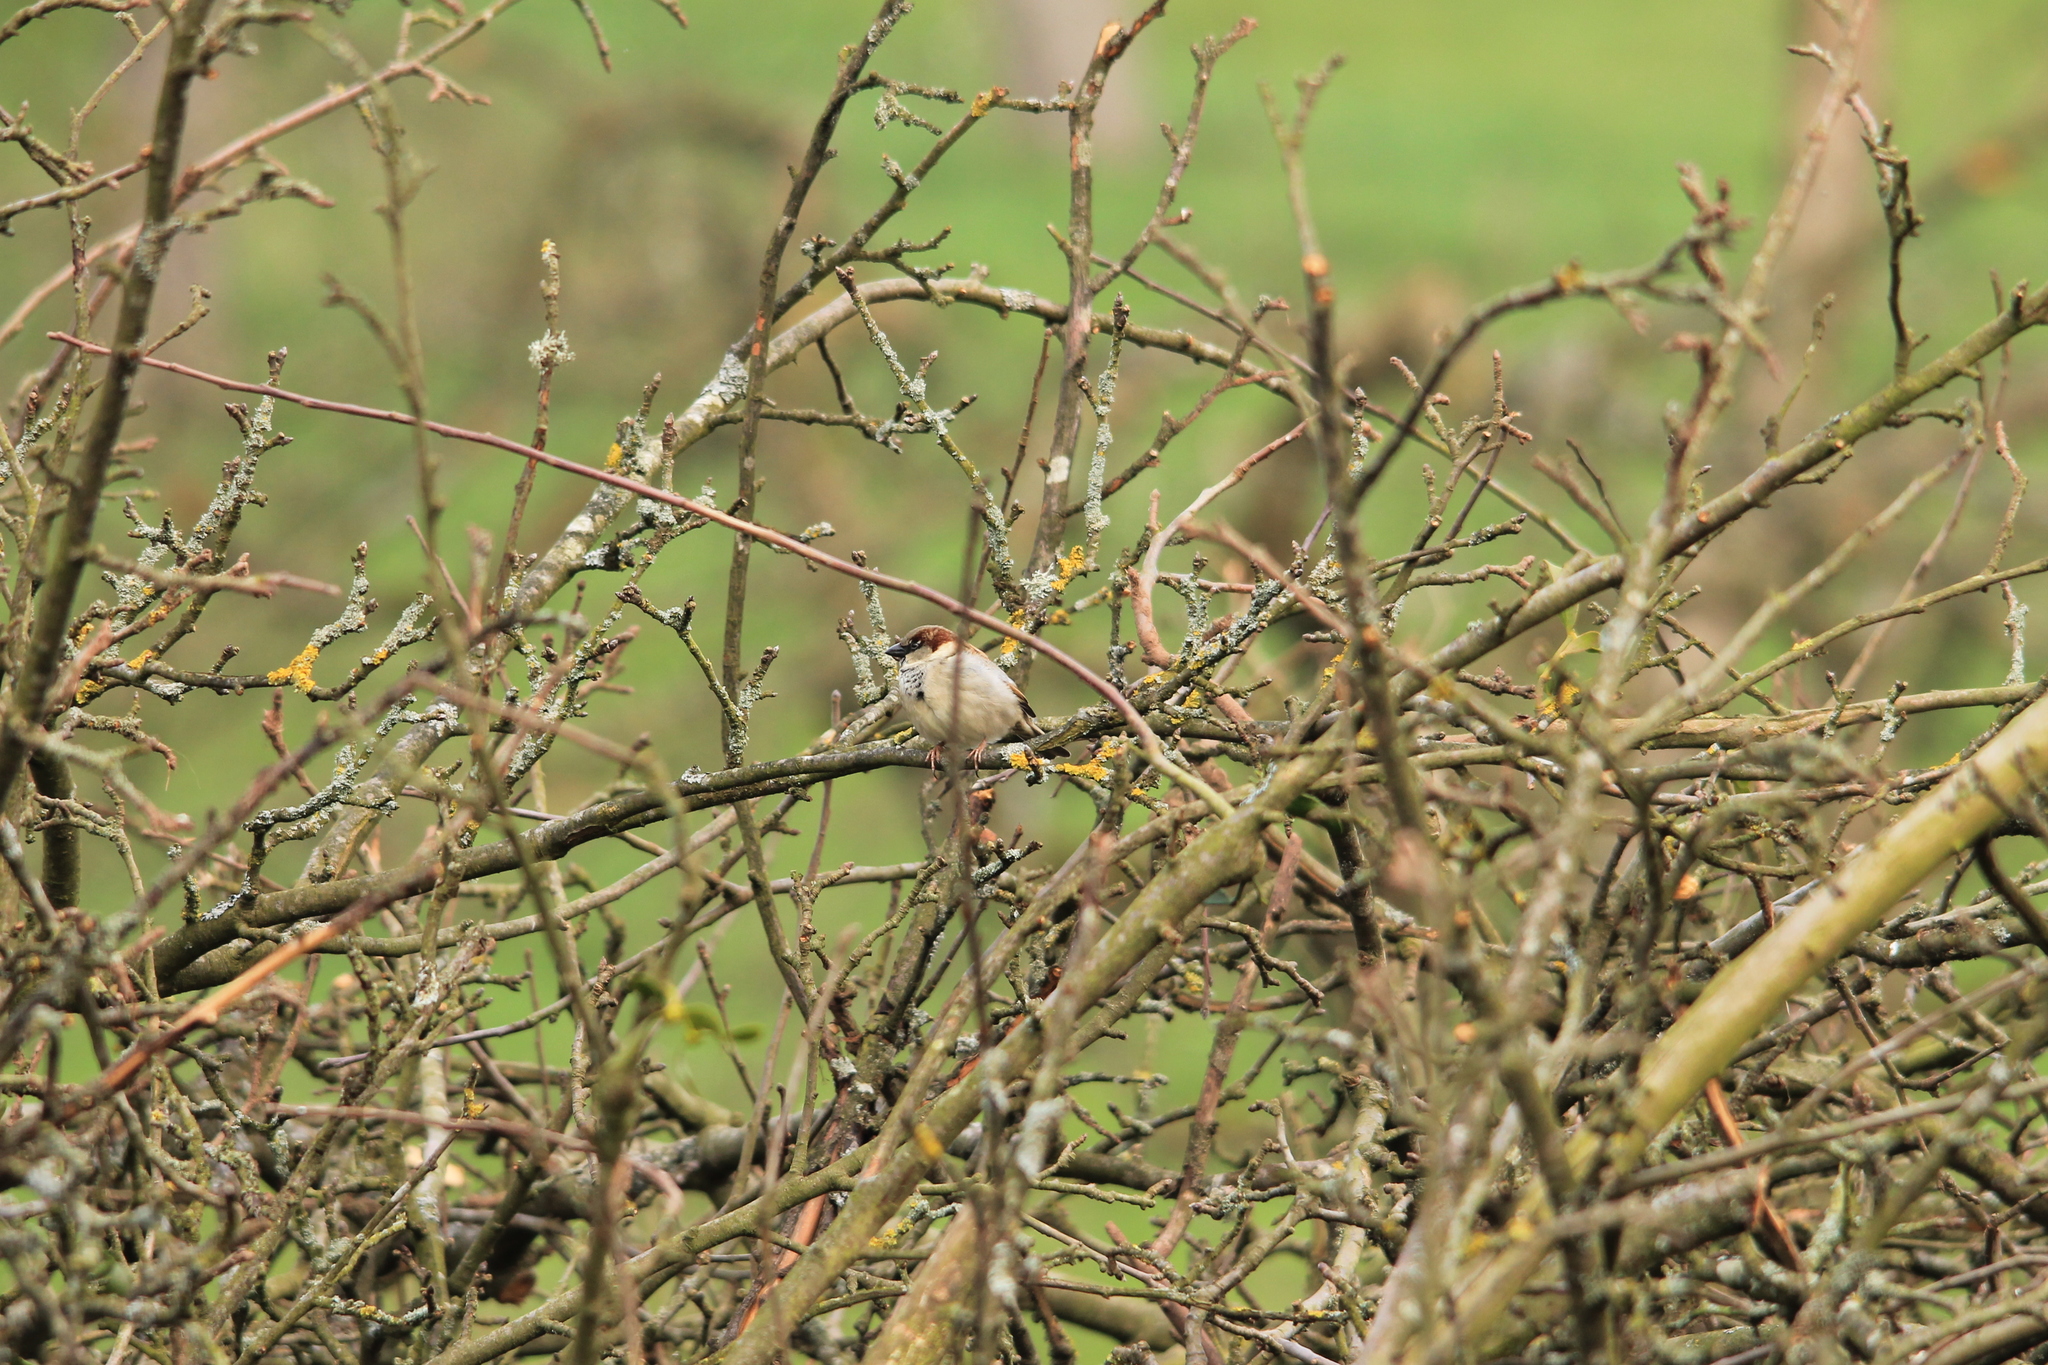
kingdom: Animalia
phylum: Chordata
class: Aves
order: Passeriformes
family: Passeridae
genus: Passer
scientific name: Passer domesticus
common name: House sparrow
